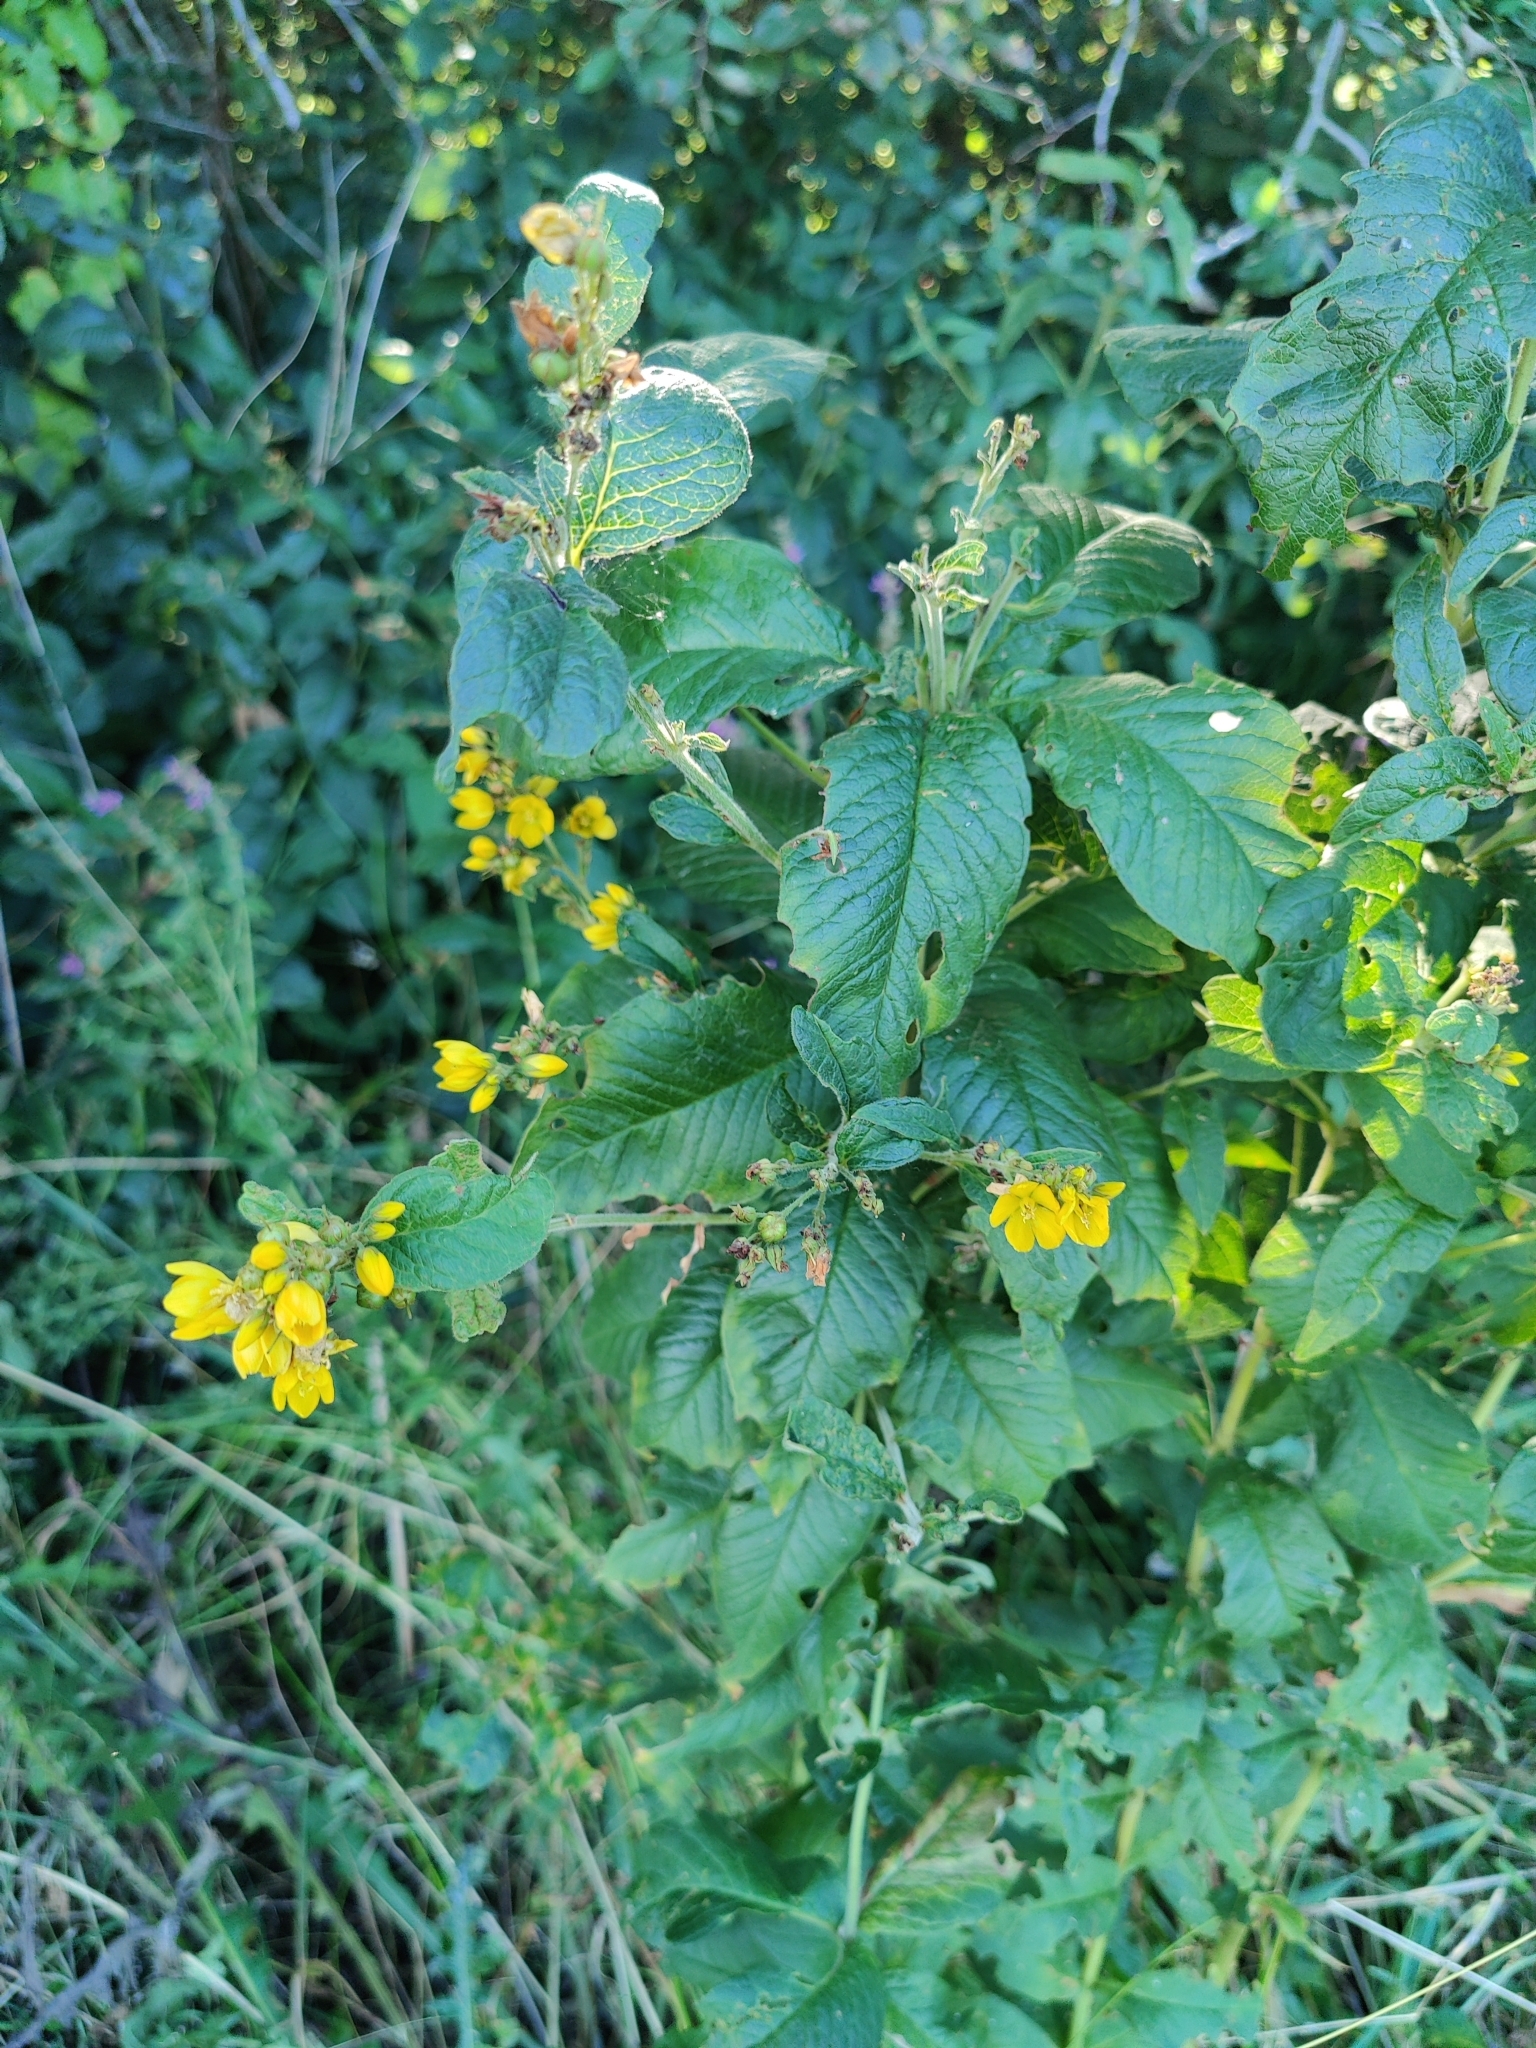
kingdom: Plantae
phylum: Tracheophyta
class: Magnoliopsida
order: Ericales
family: Primulaceae
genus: Lysimachia
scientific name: Lysimachia vulgaris
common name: Yellow loosestrife
